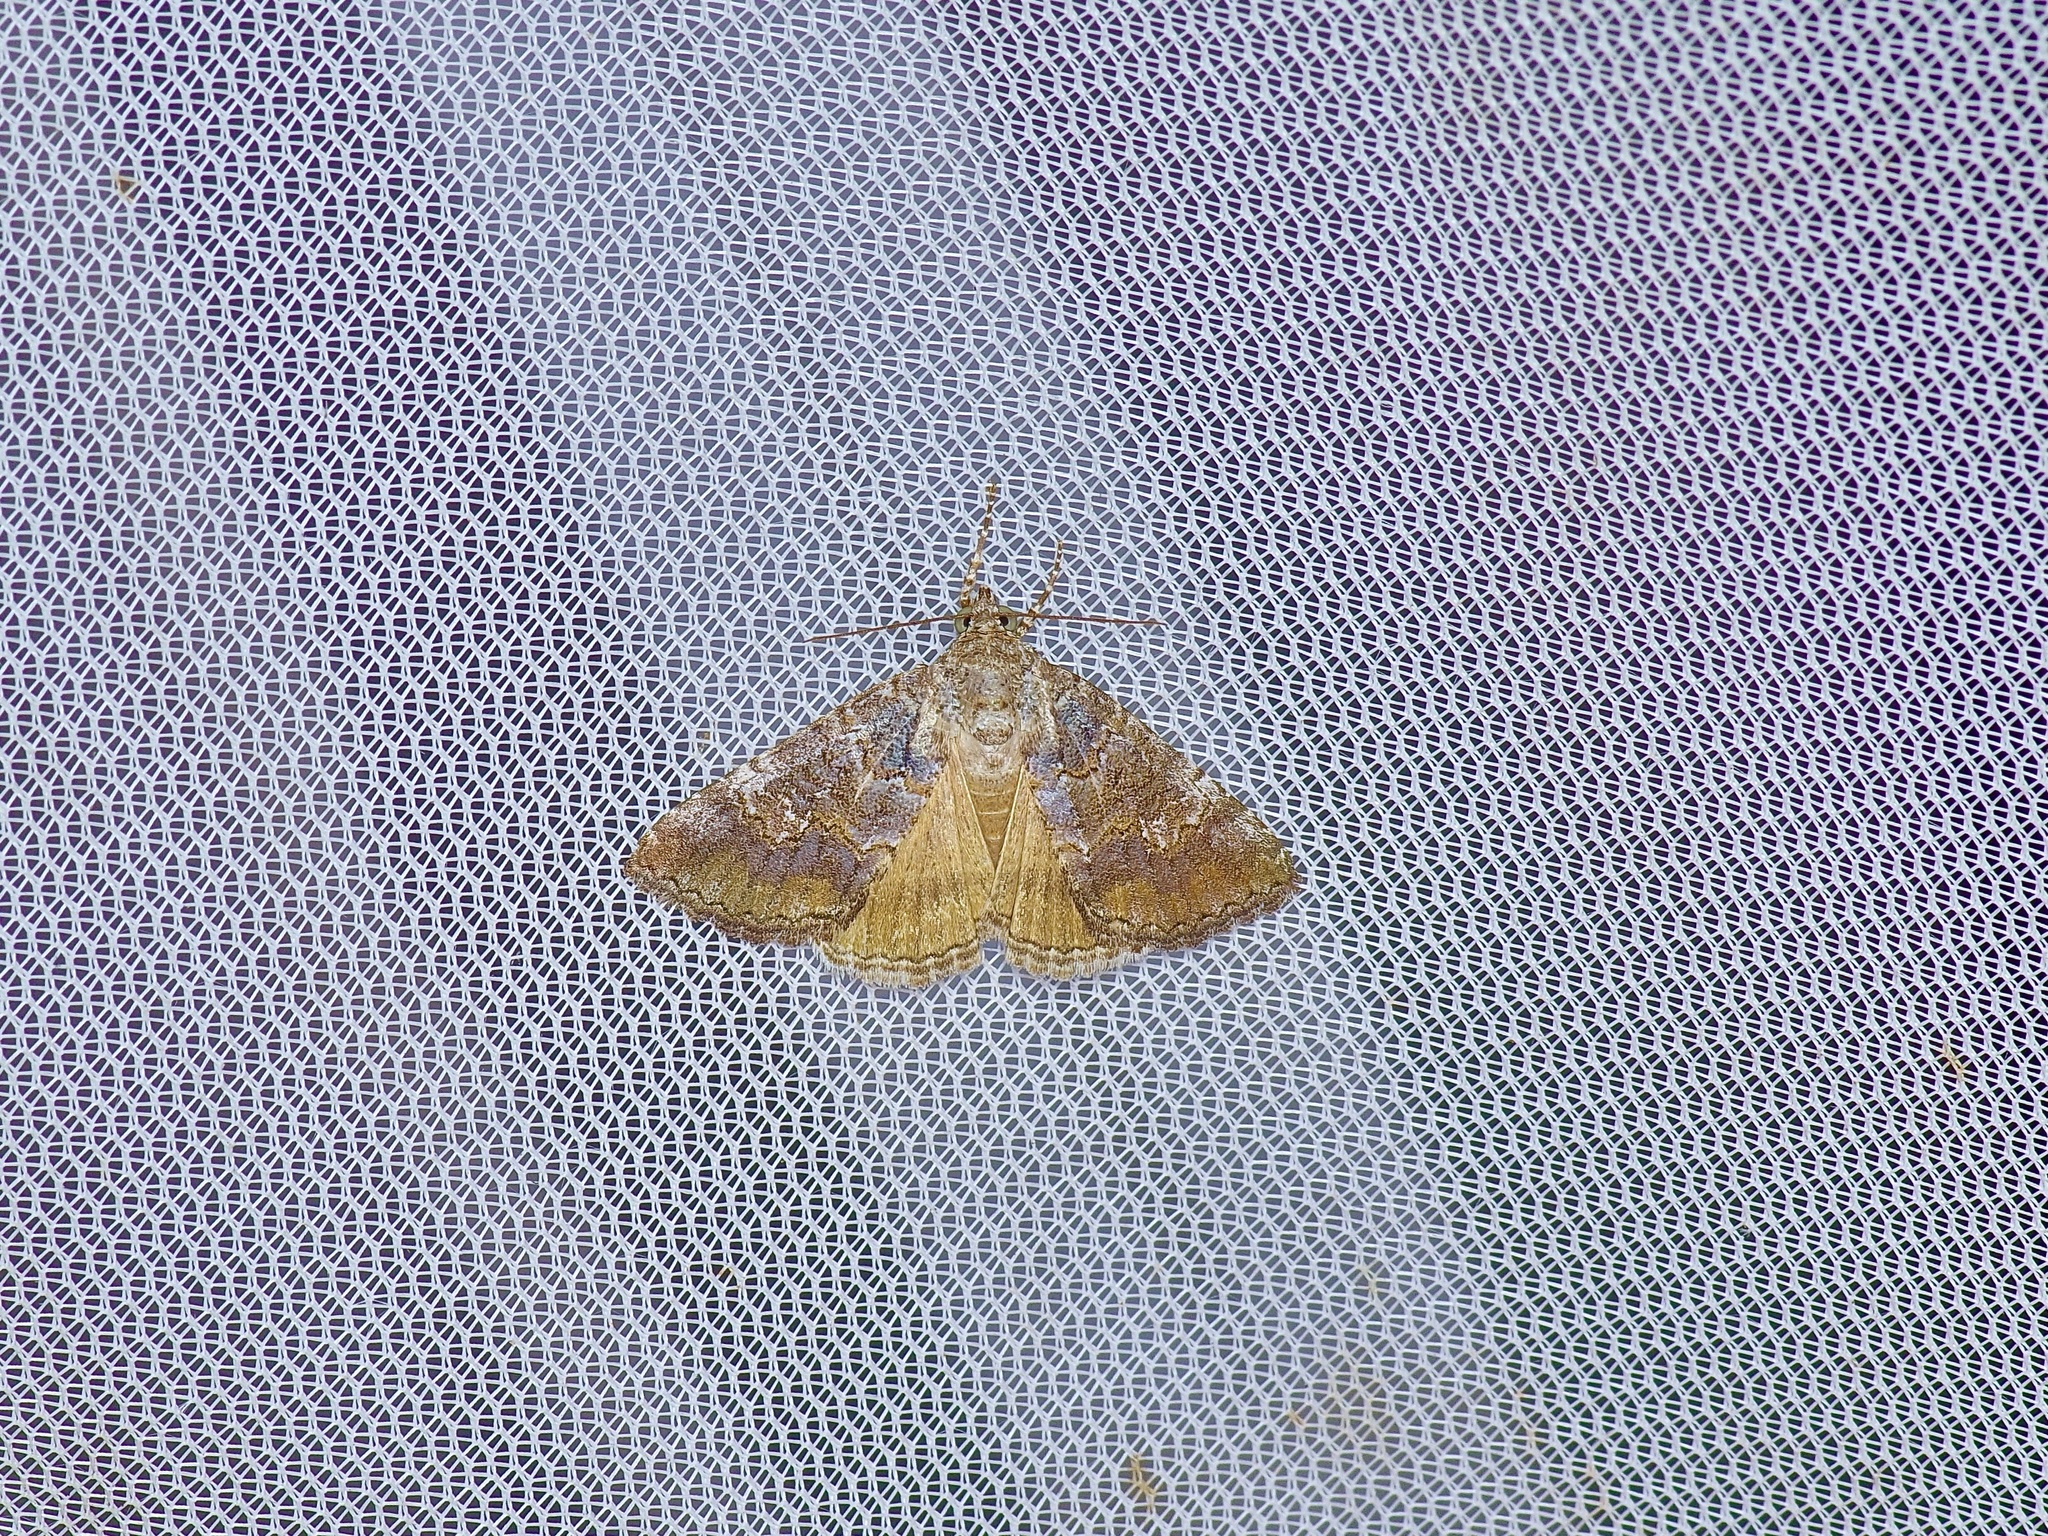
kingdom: Animalia
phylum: Arthropoda
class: Insecta
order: Lepidoptera
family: Erebidae
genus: Eubolina
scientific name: Eubolina impartialis
